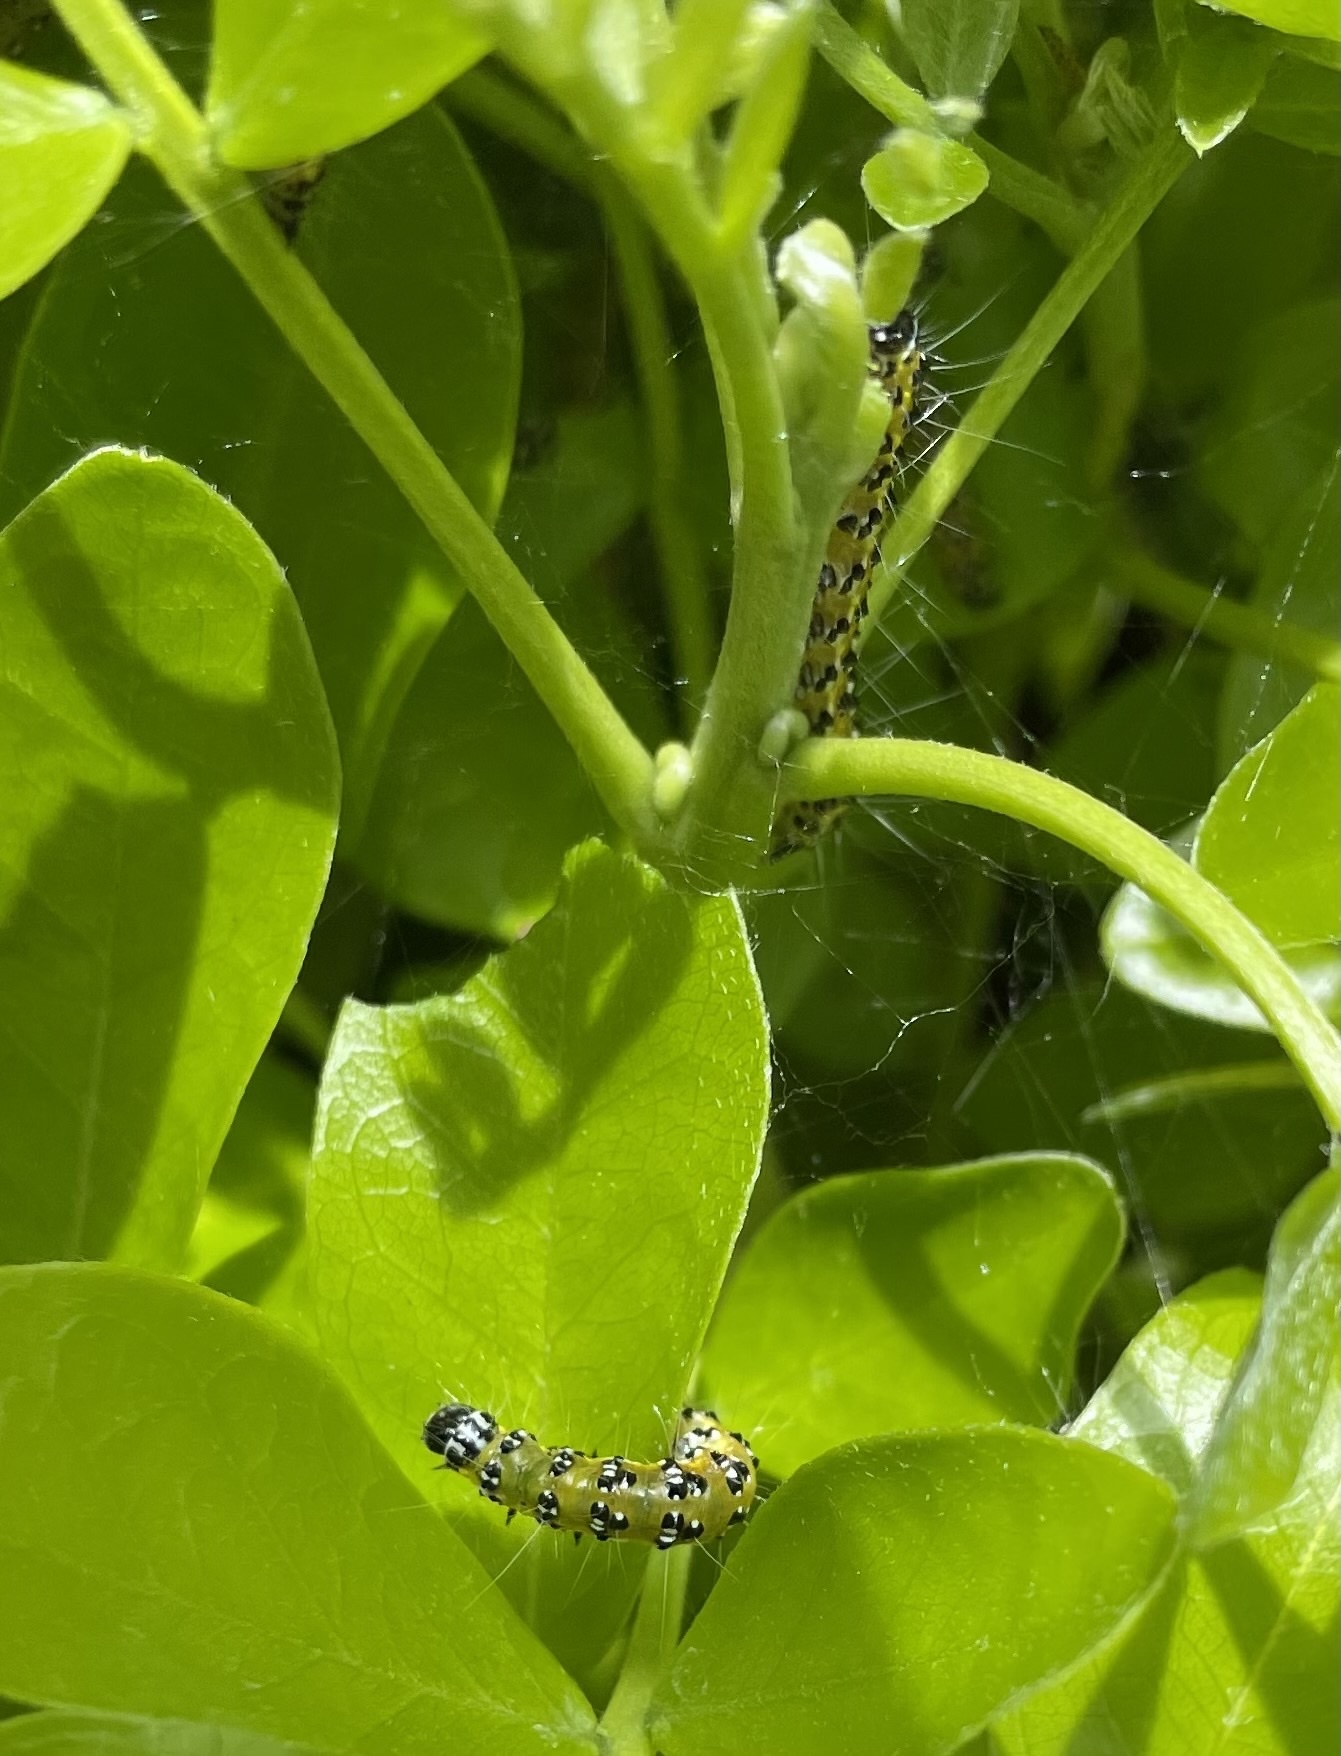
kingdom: Animalia
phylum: Arthropoda
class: Insecta
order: Lepidoptera
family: Crambidae
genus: Uresiphita
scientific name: Uresiphita reversalis
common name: Genista broom moth
